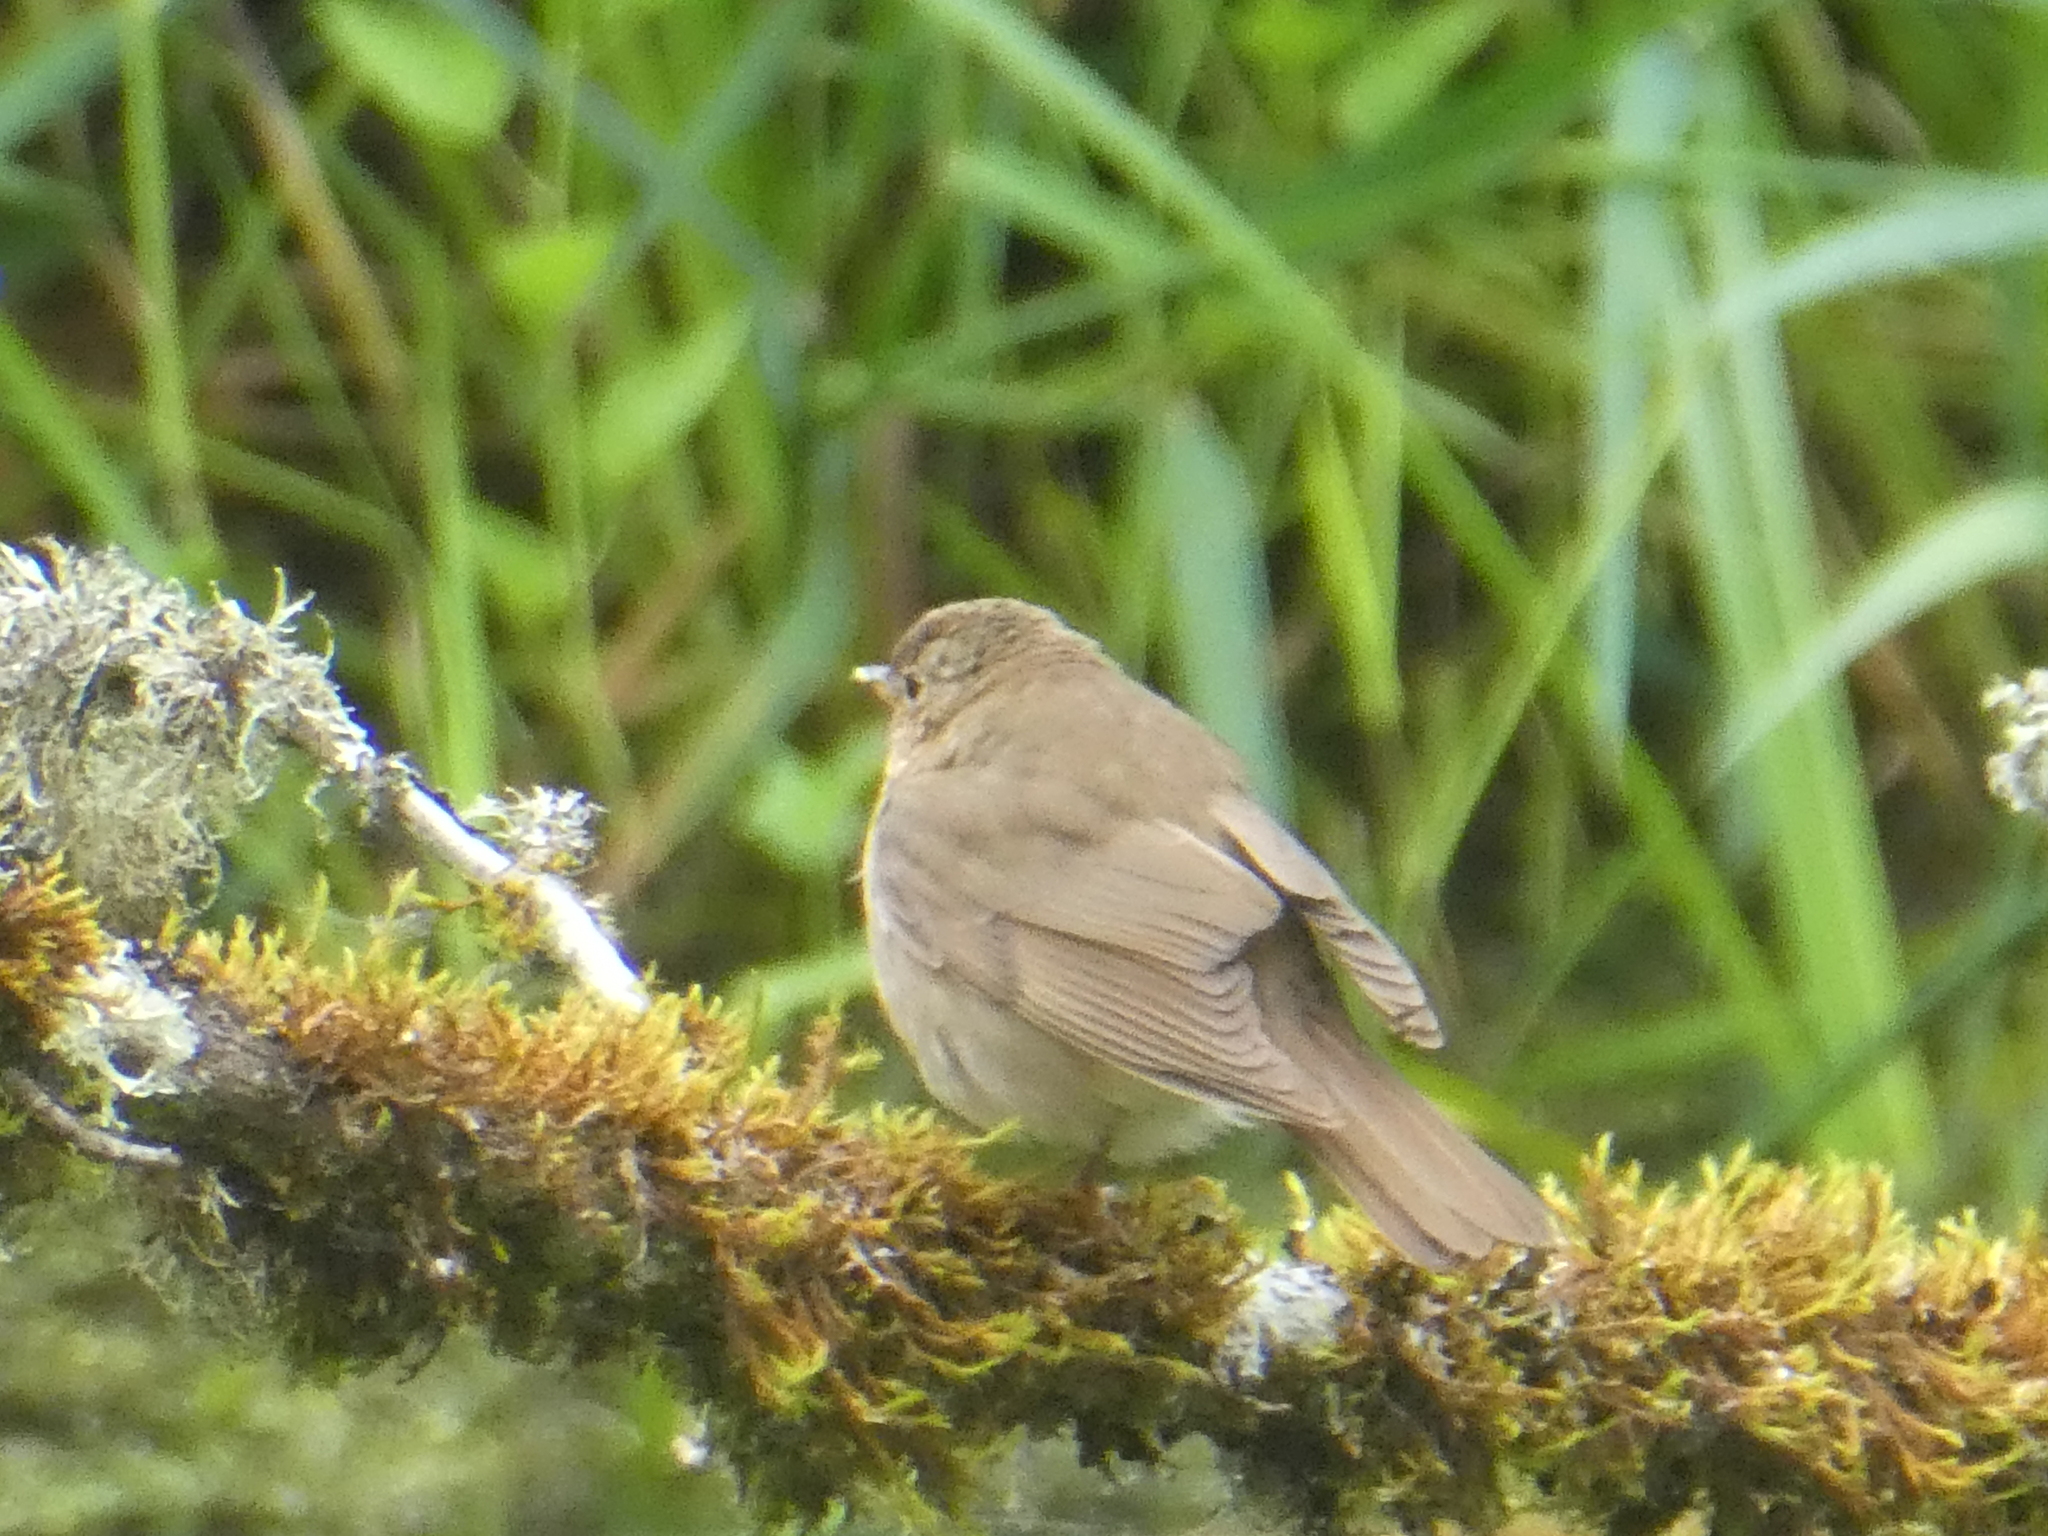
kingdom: Animalia
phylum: Chordata
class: Aves
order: Passeriformes
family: Turdidae
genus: Catharus
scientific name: Catharus ustulatus
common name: Swainson's thrush
